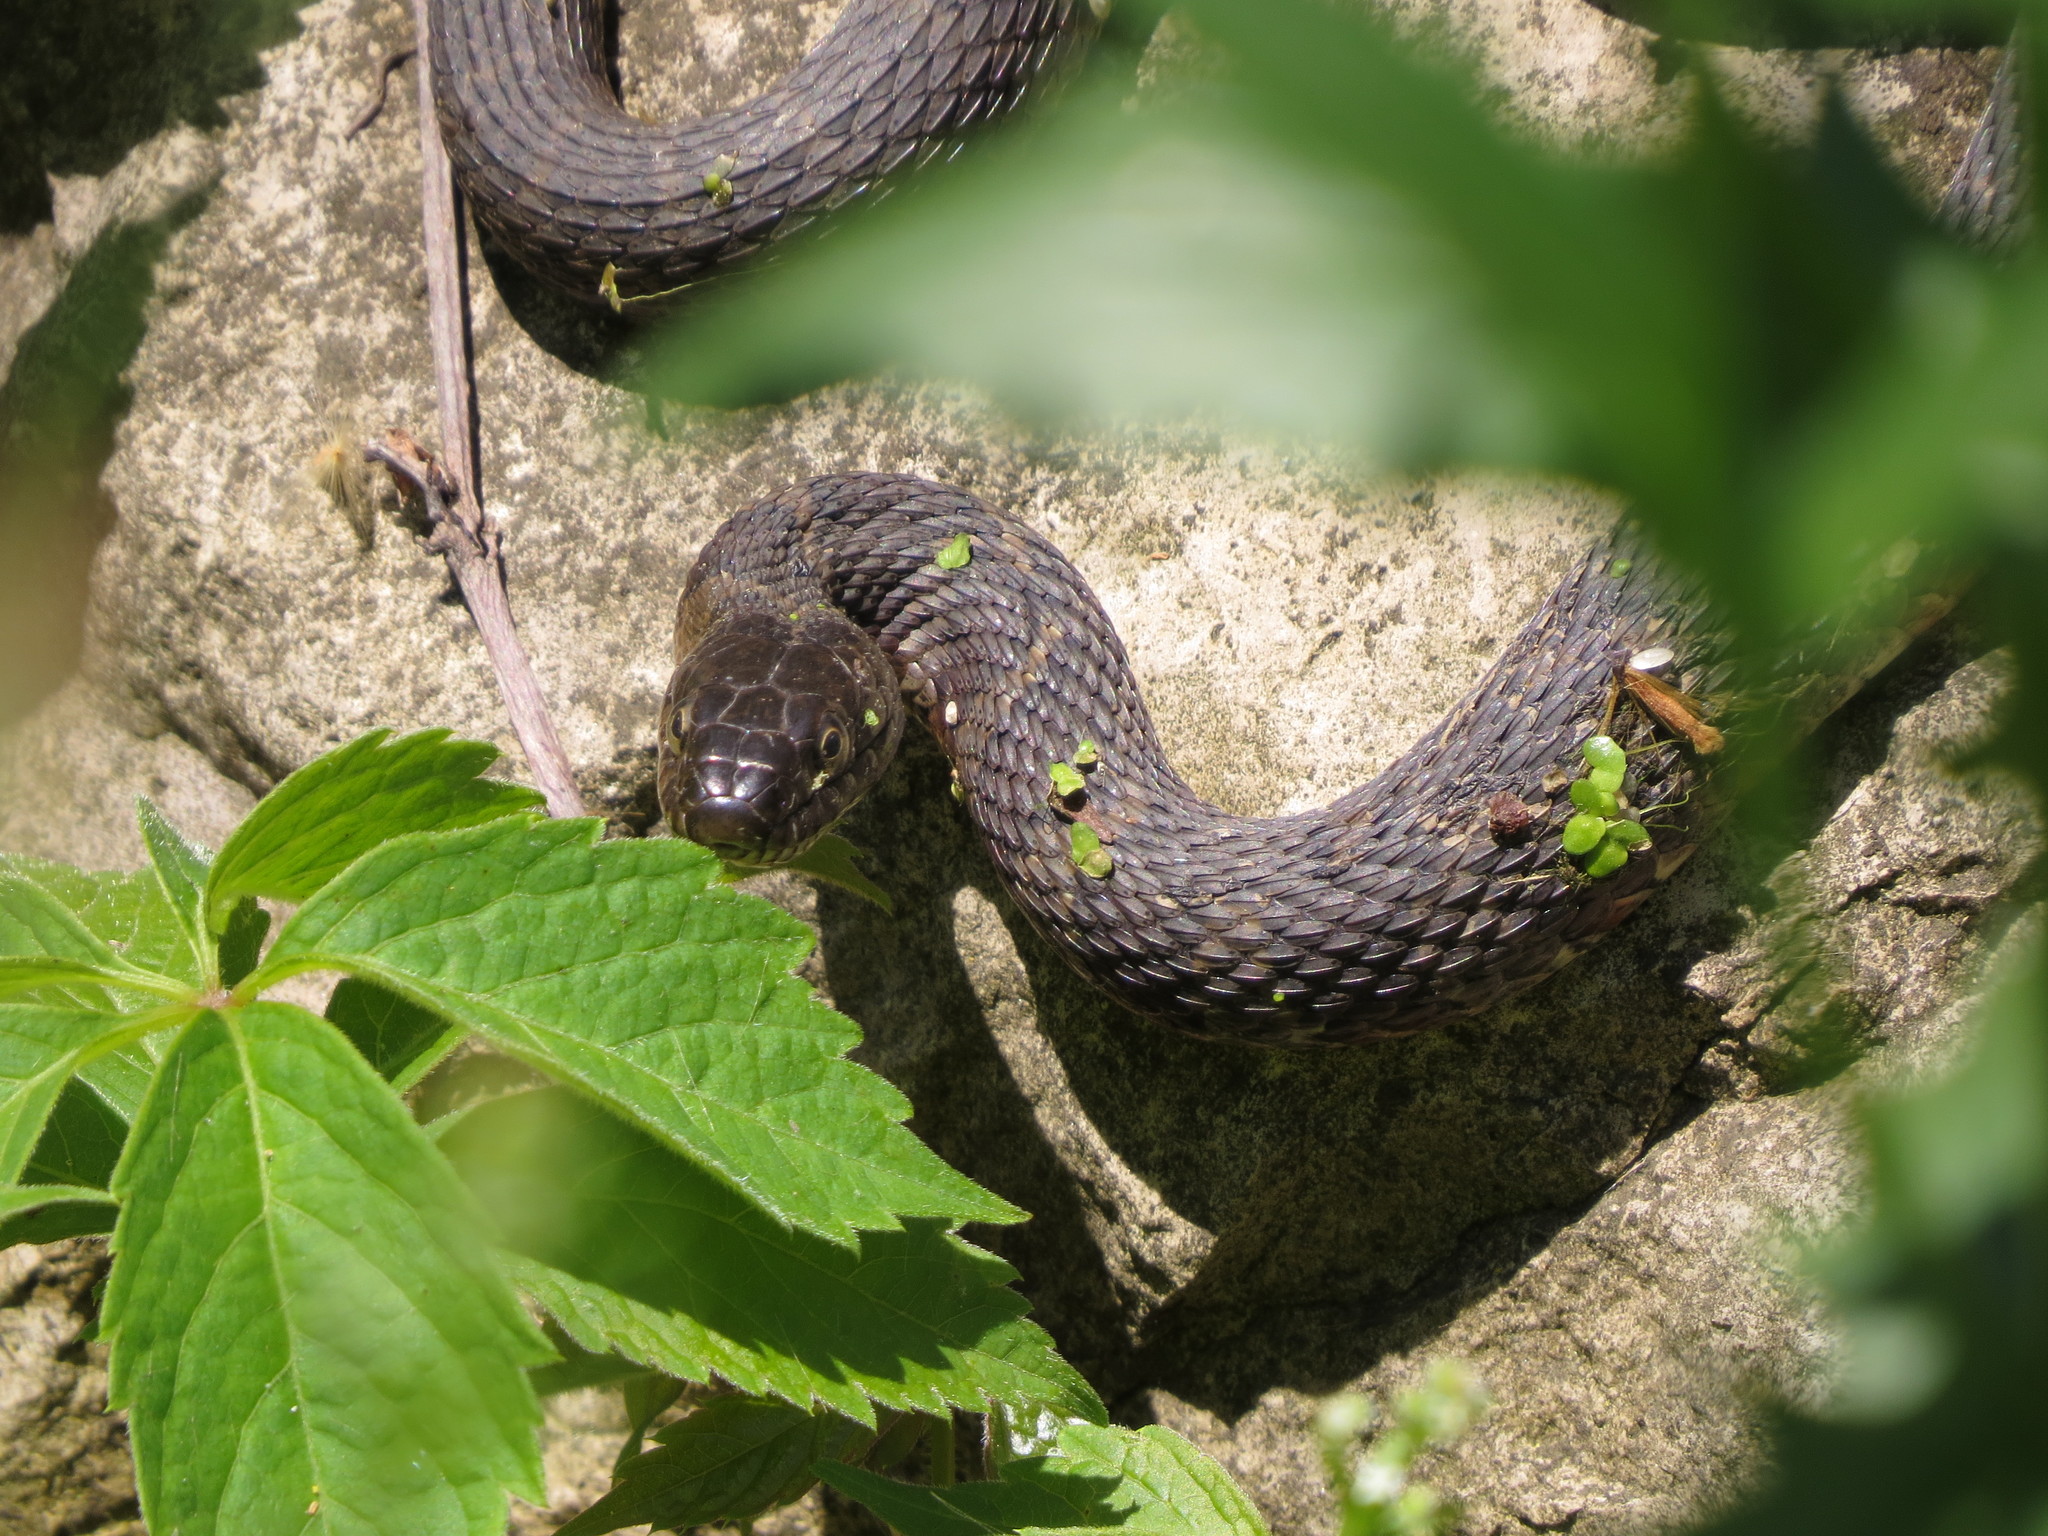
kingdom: Animalia
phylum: Chordata
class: Squamata
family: Colubridae
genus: Nerodia
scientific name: Nerodia sipedon
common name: Northern water snake
